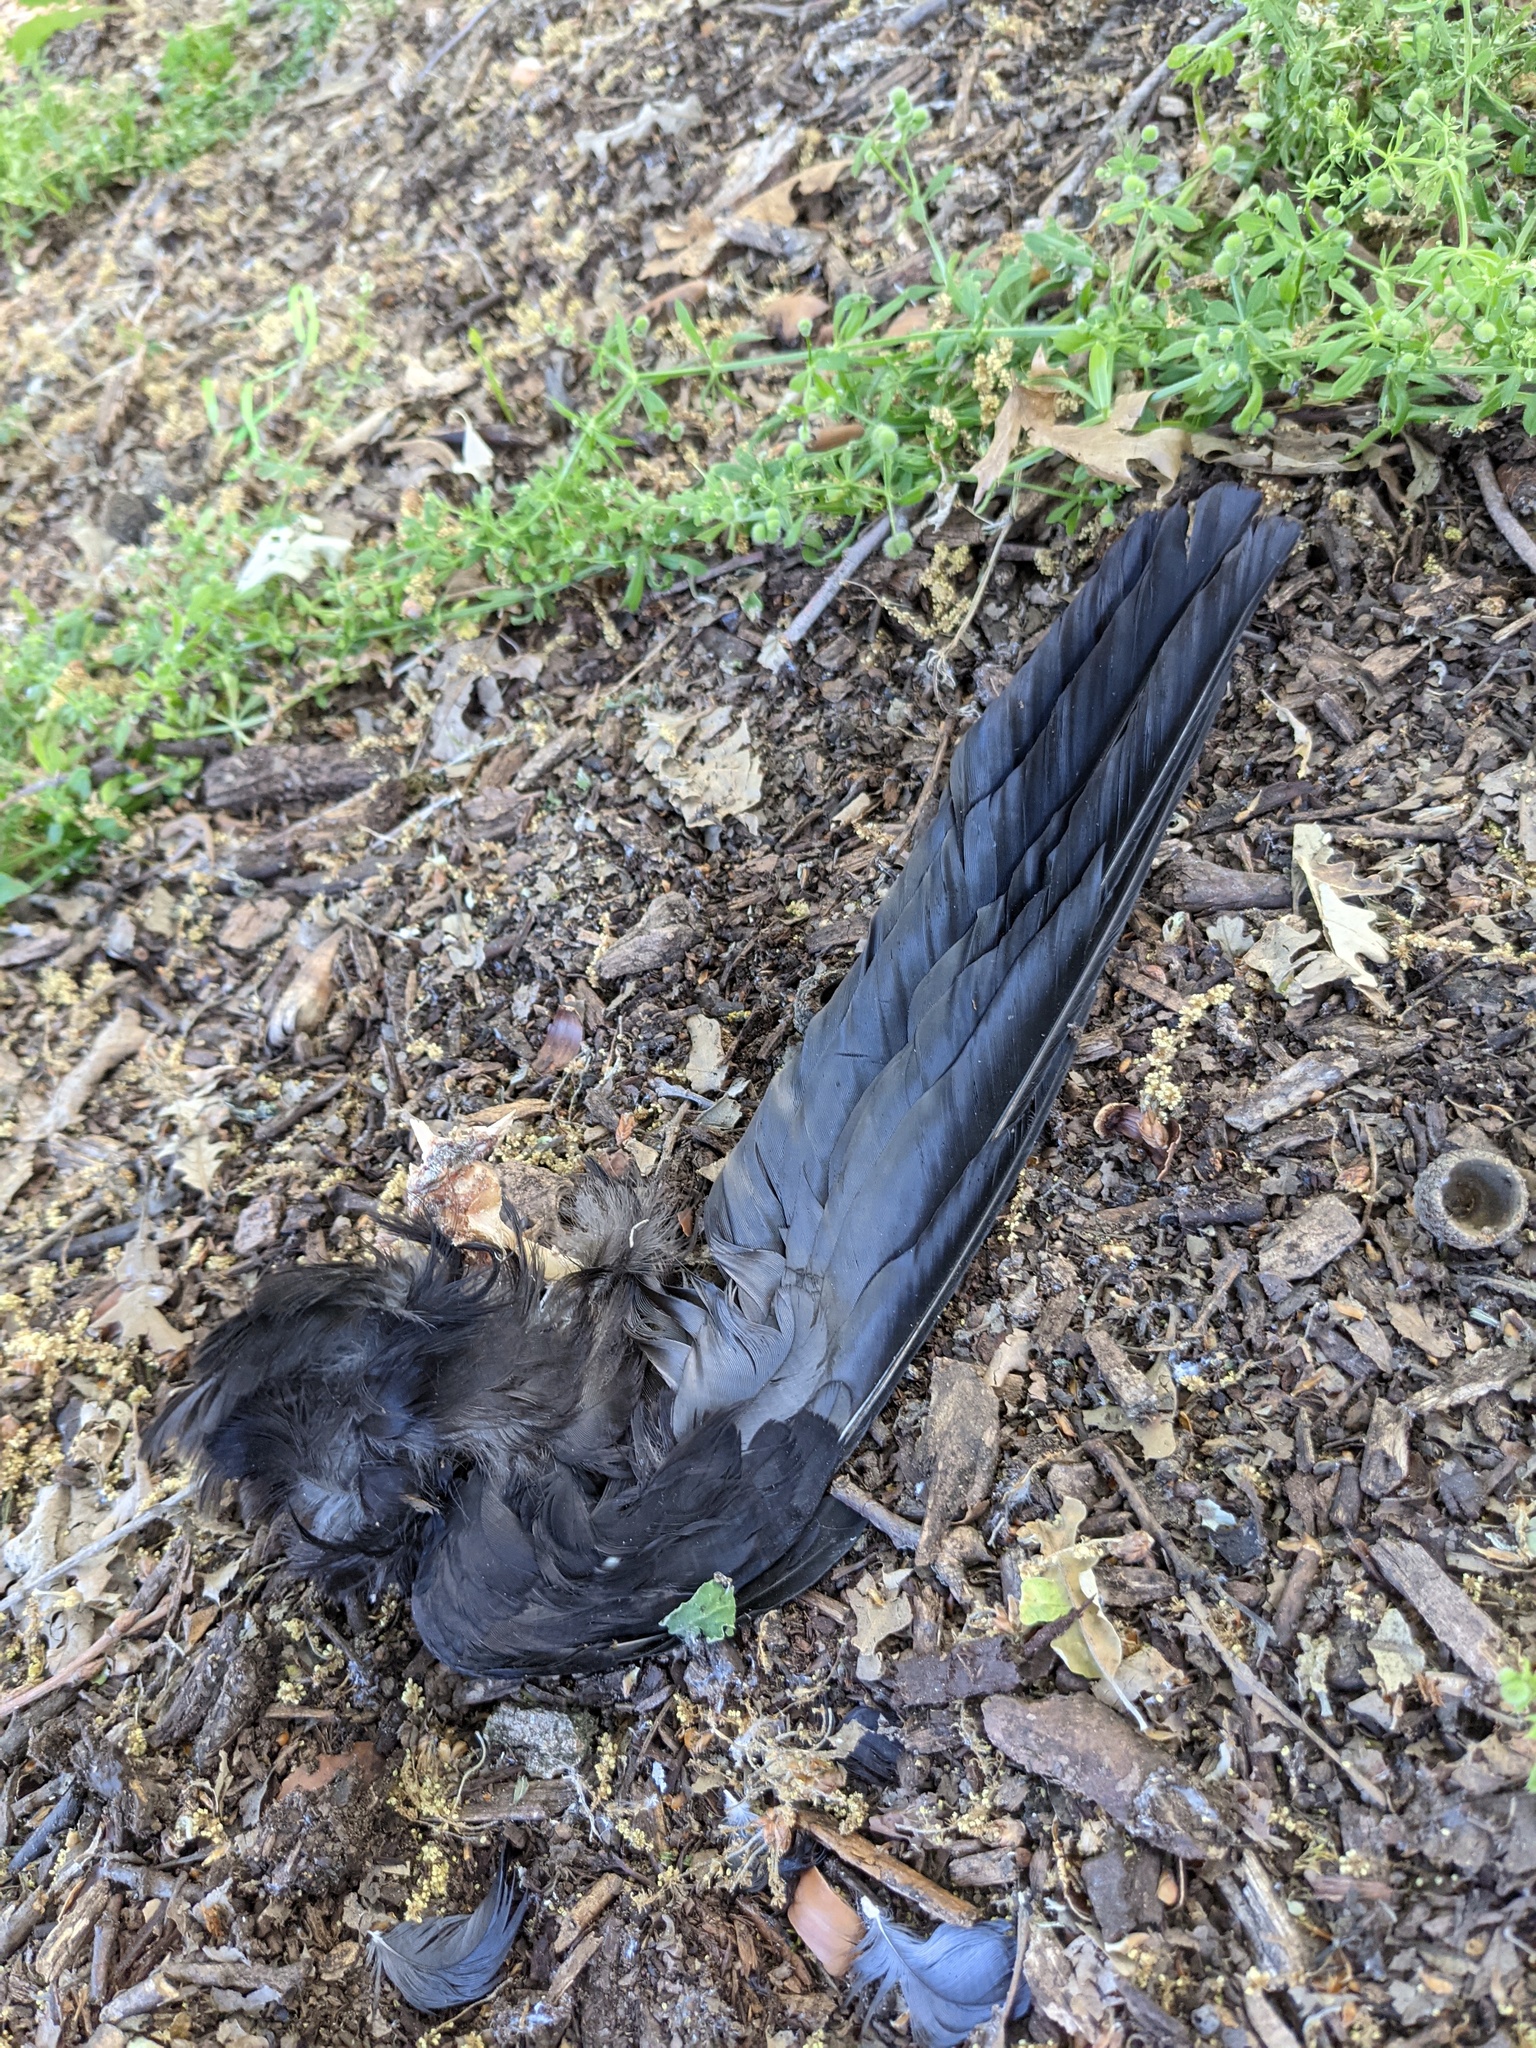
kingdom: Animalia
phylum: Chordata
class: Aves
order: Passeriformes
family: Corvidae
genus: Corvus
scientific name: Corvus brachyrhynchos
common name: American crow
